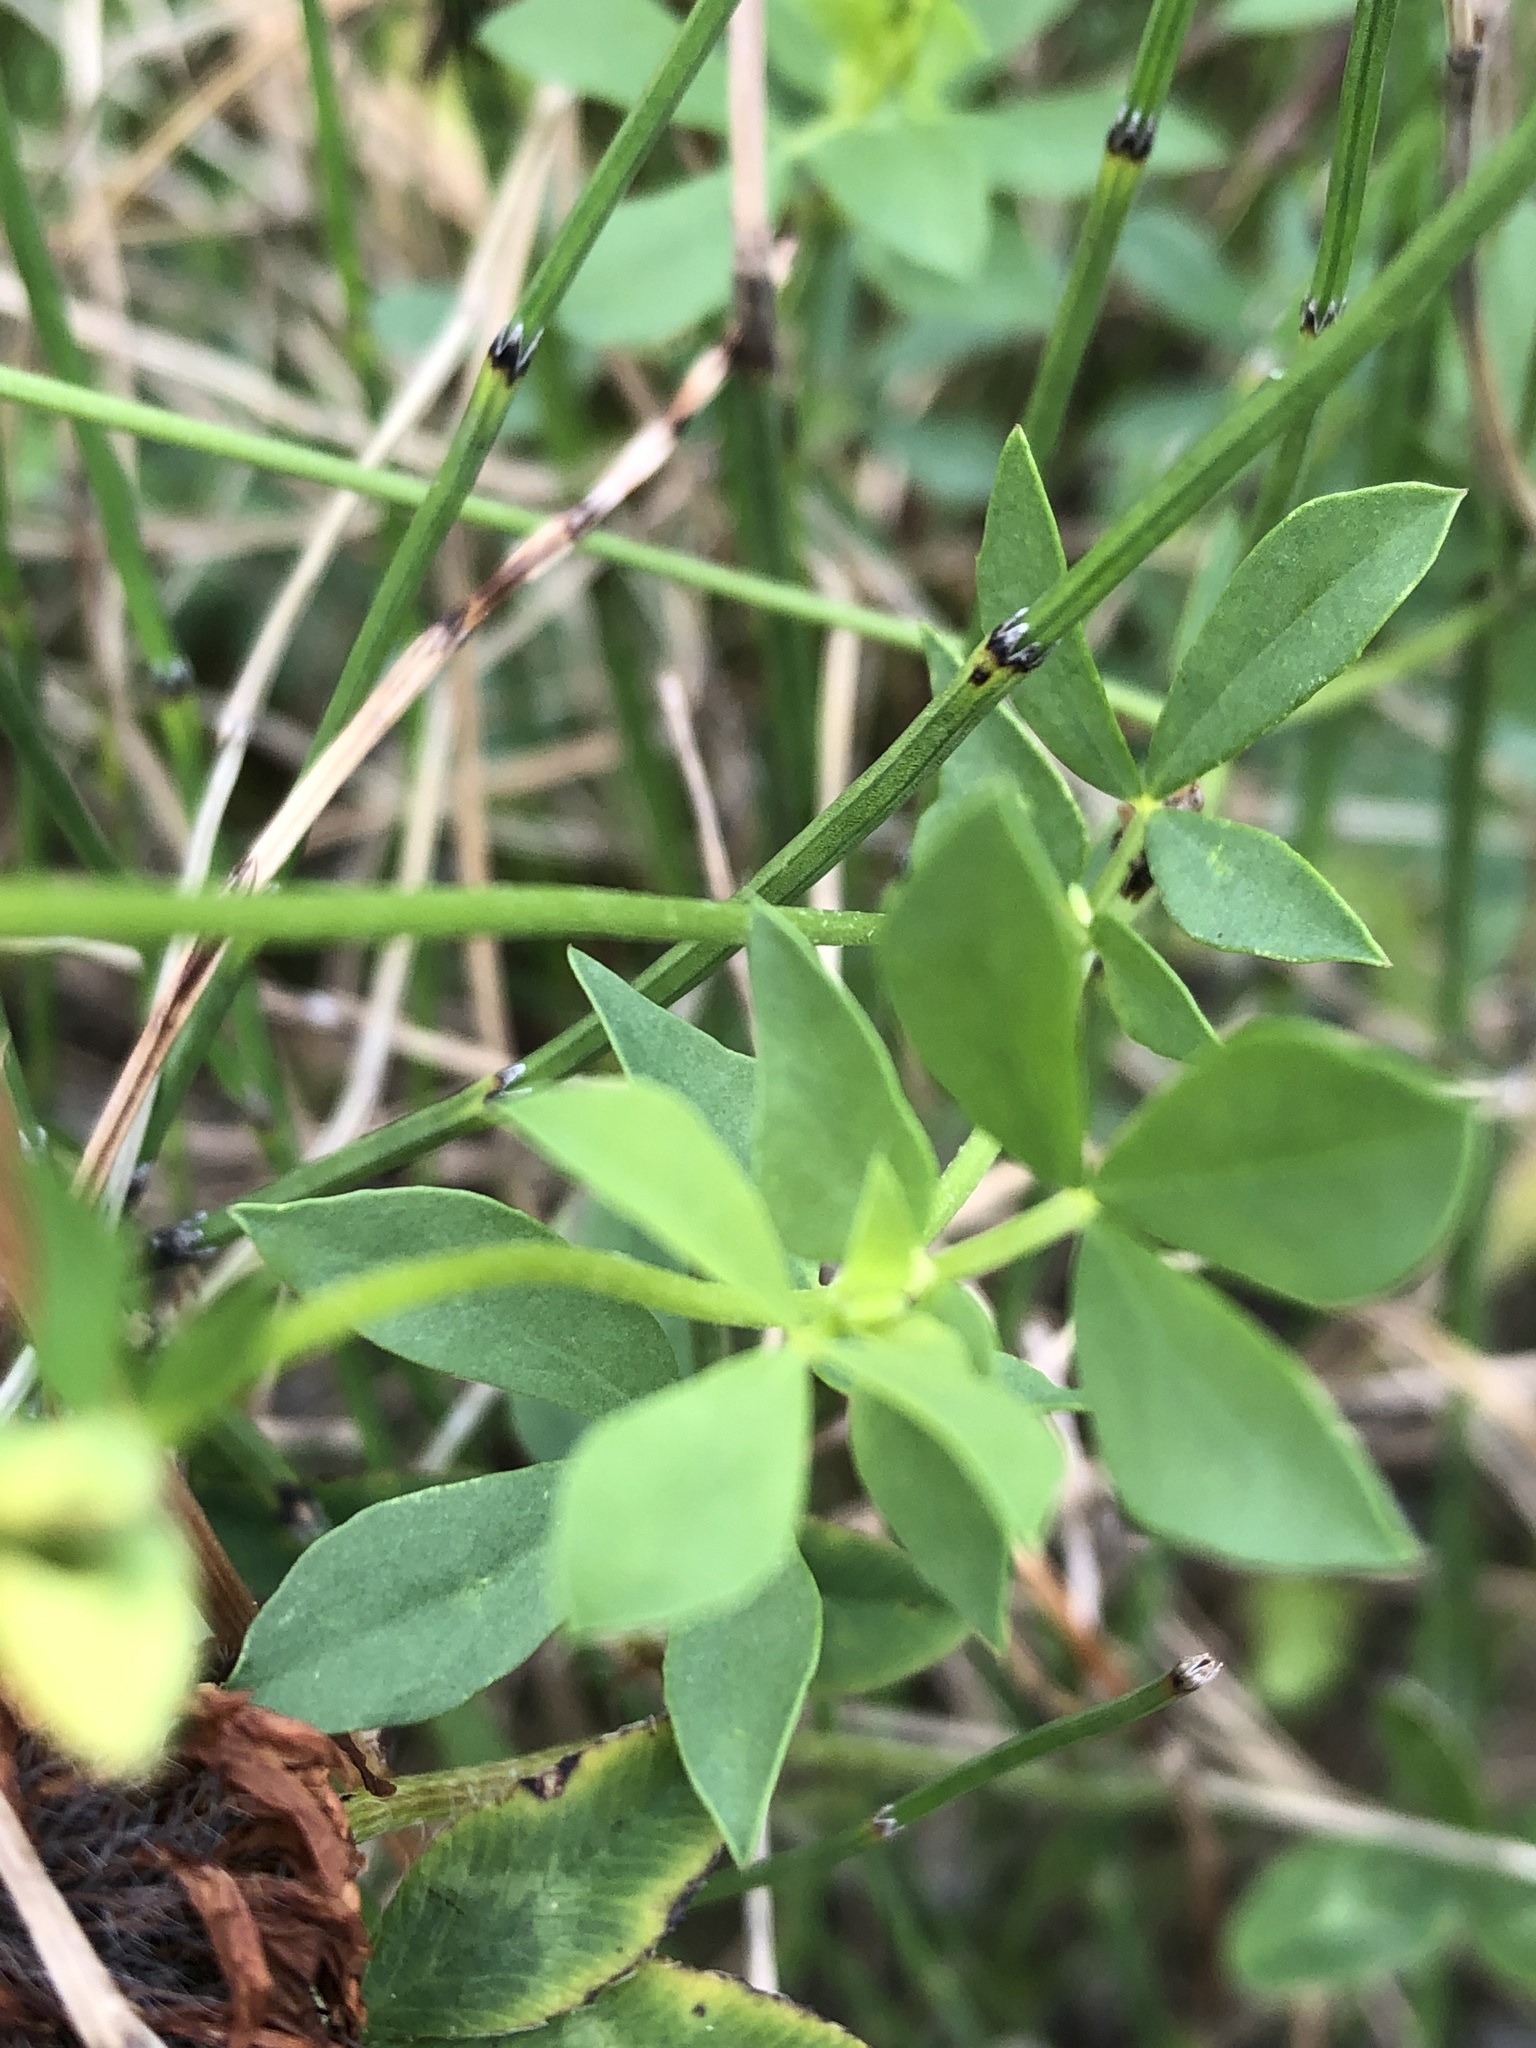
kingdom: Plantae
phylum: Tracheophyta
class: Magnoliopsida
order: Fabales
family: Fabaceae
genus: Lotus
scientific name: Lotus corniculatus
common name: Common bird's-foot-trefoil
